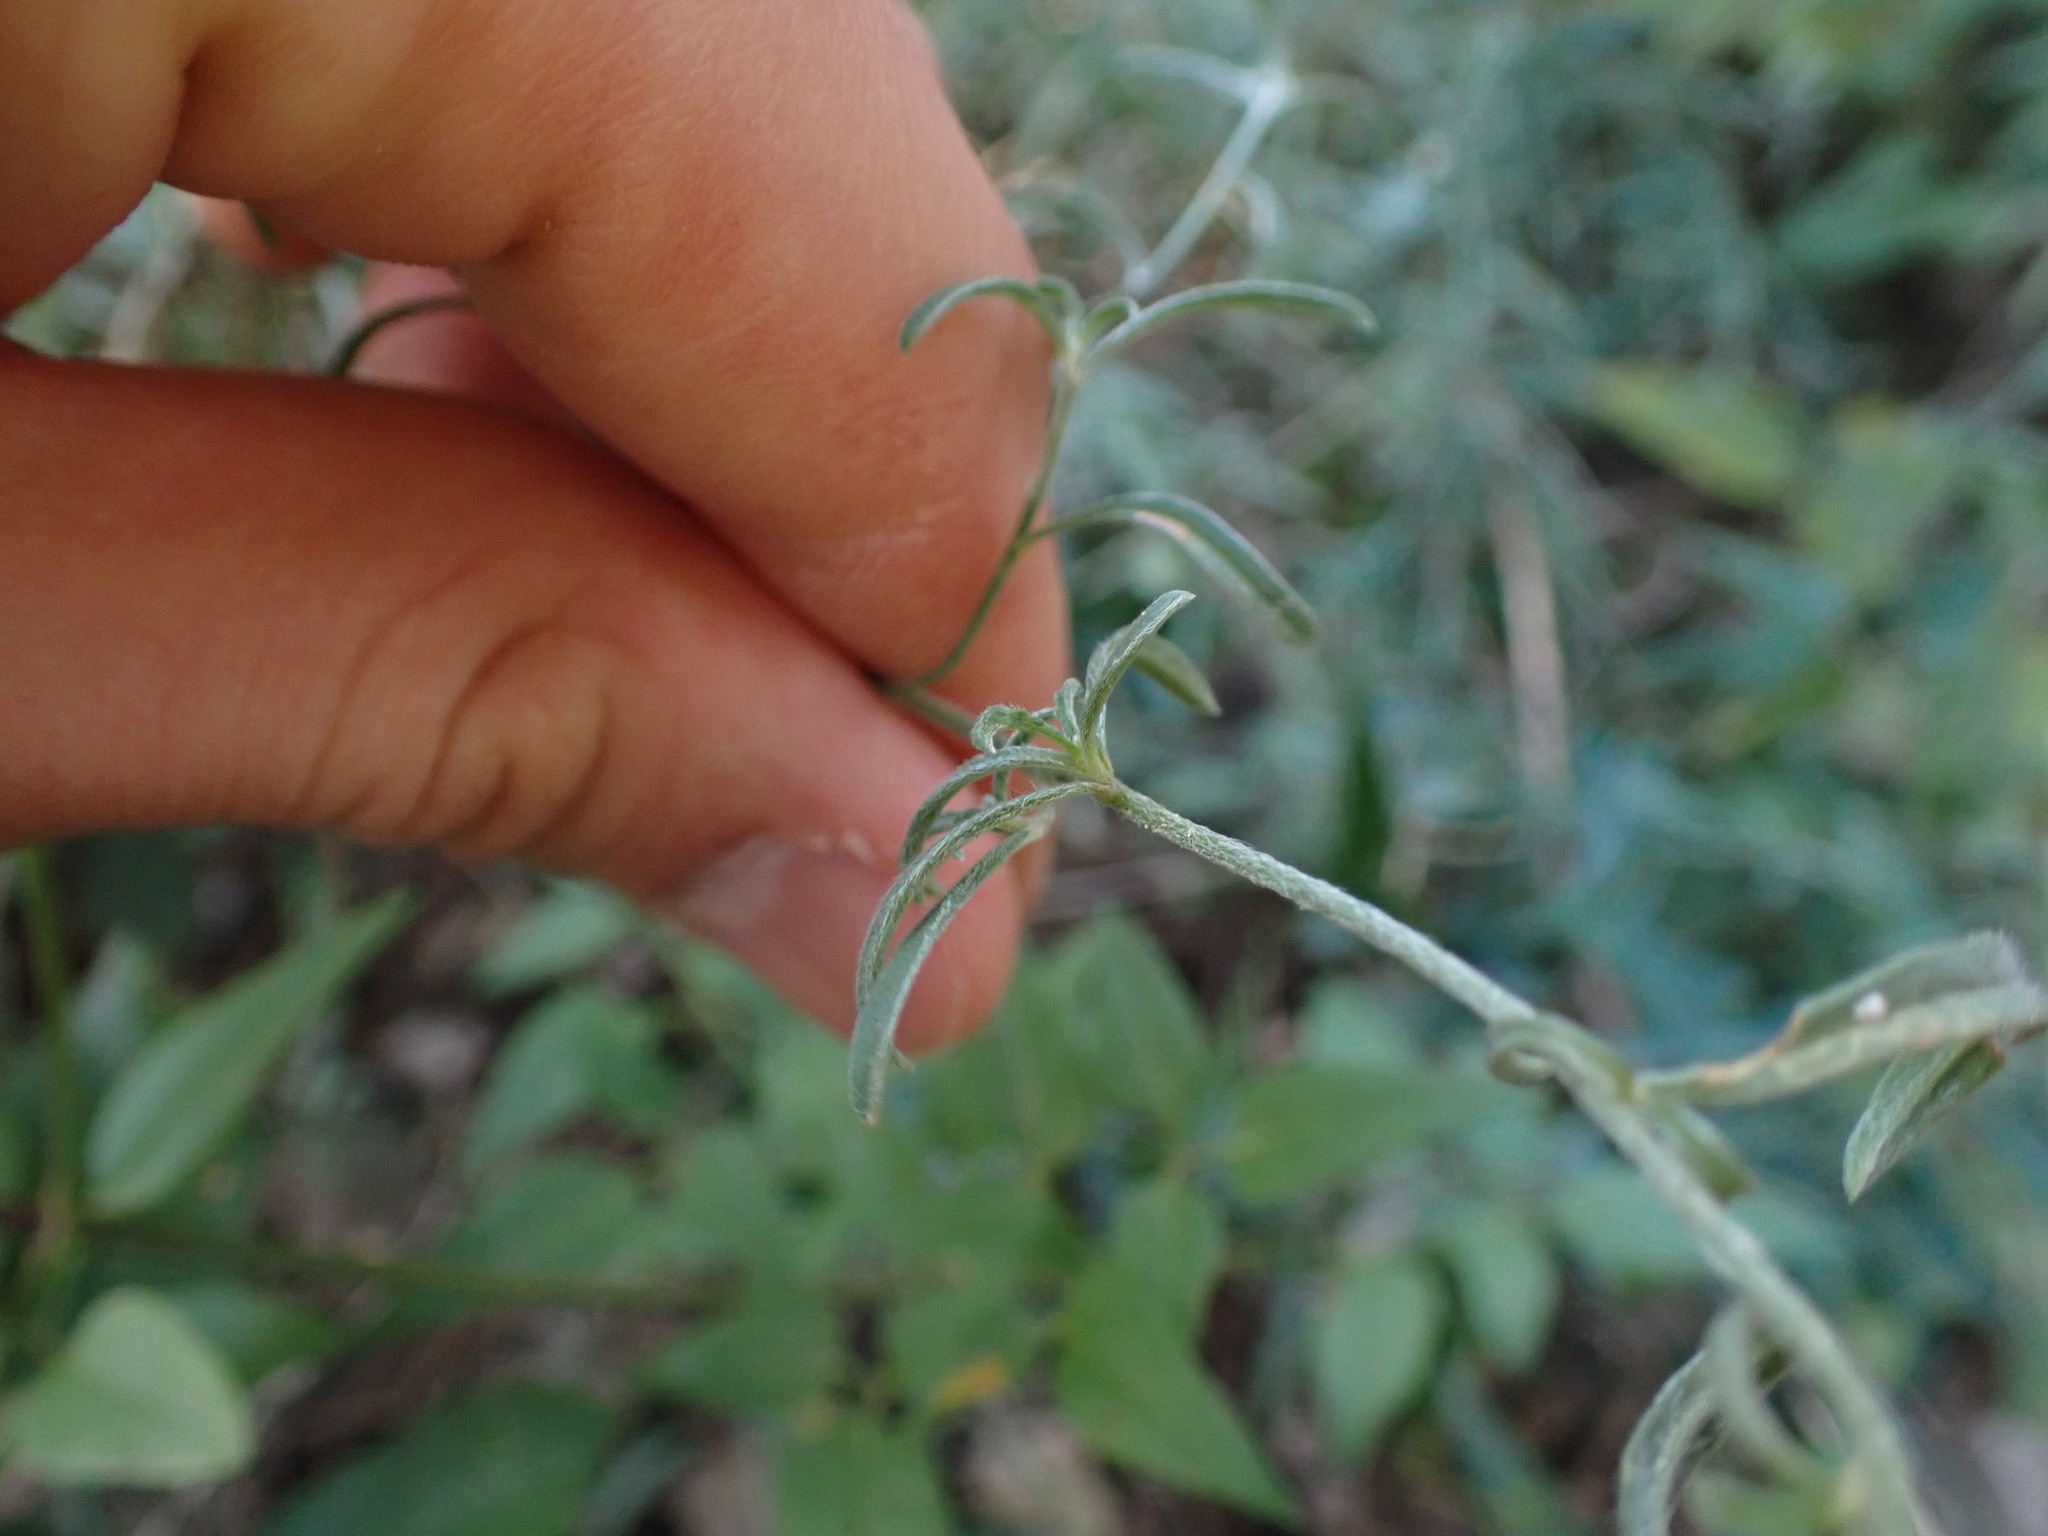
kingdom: Plantae
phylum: Tracheophyta
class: Magnoliopsida
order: Solanales
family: Convolvulaceae
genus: Convolvulus
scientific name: Convolvulus cantabrica
